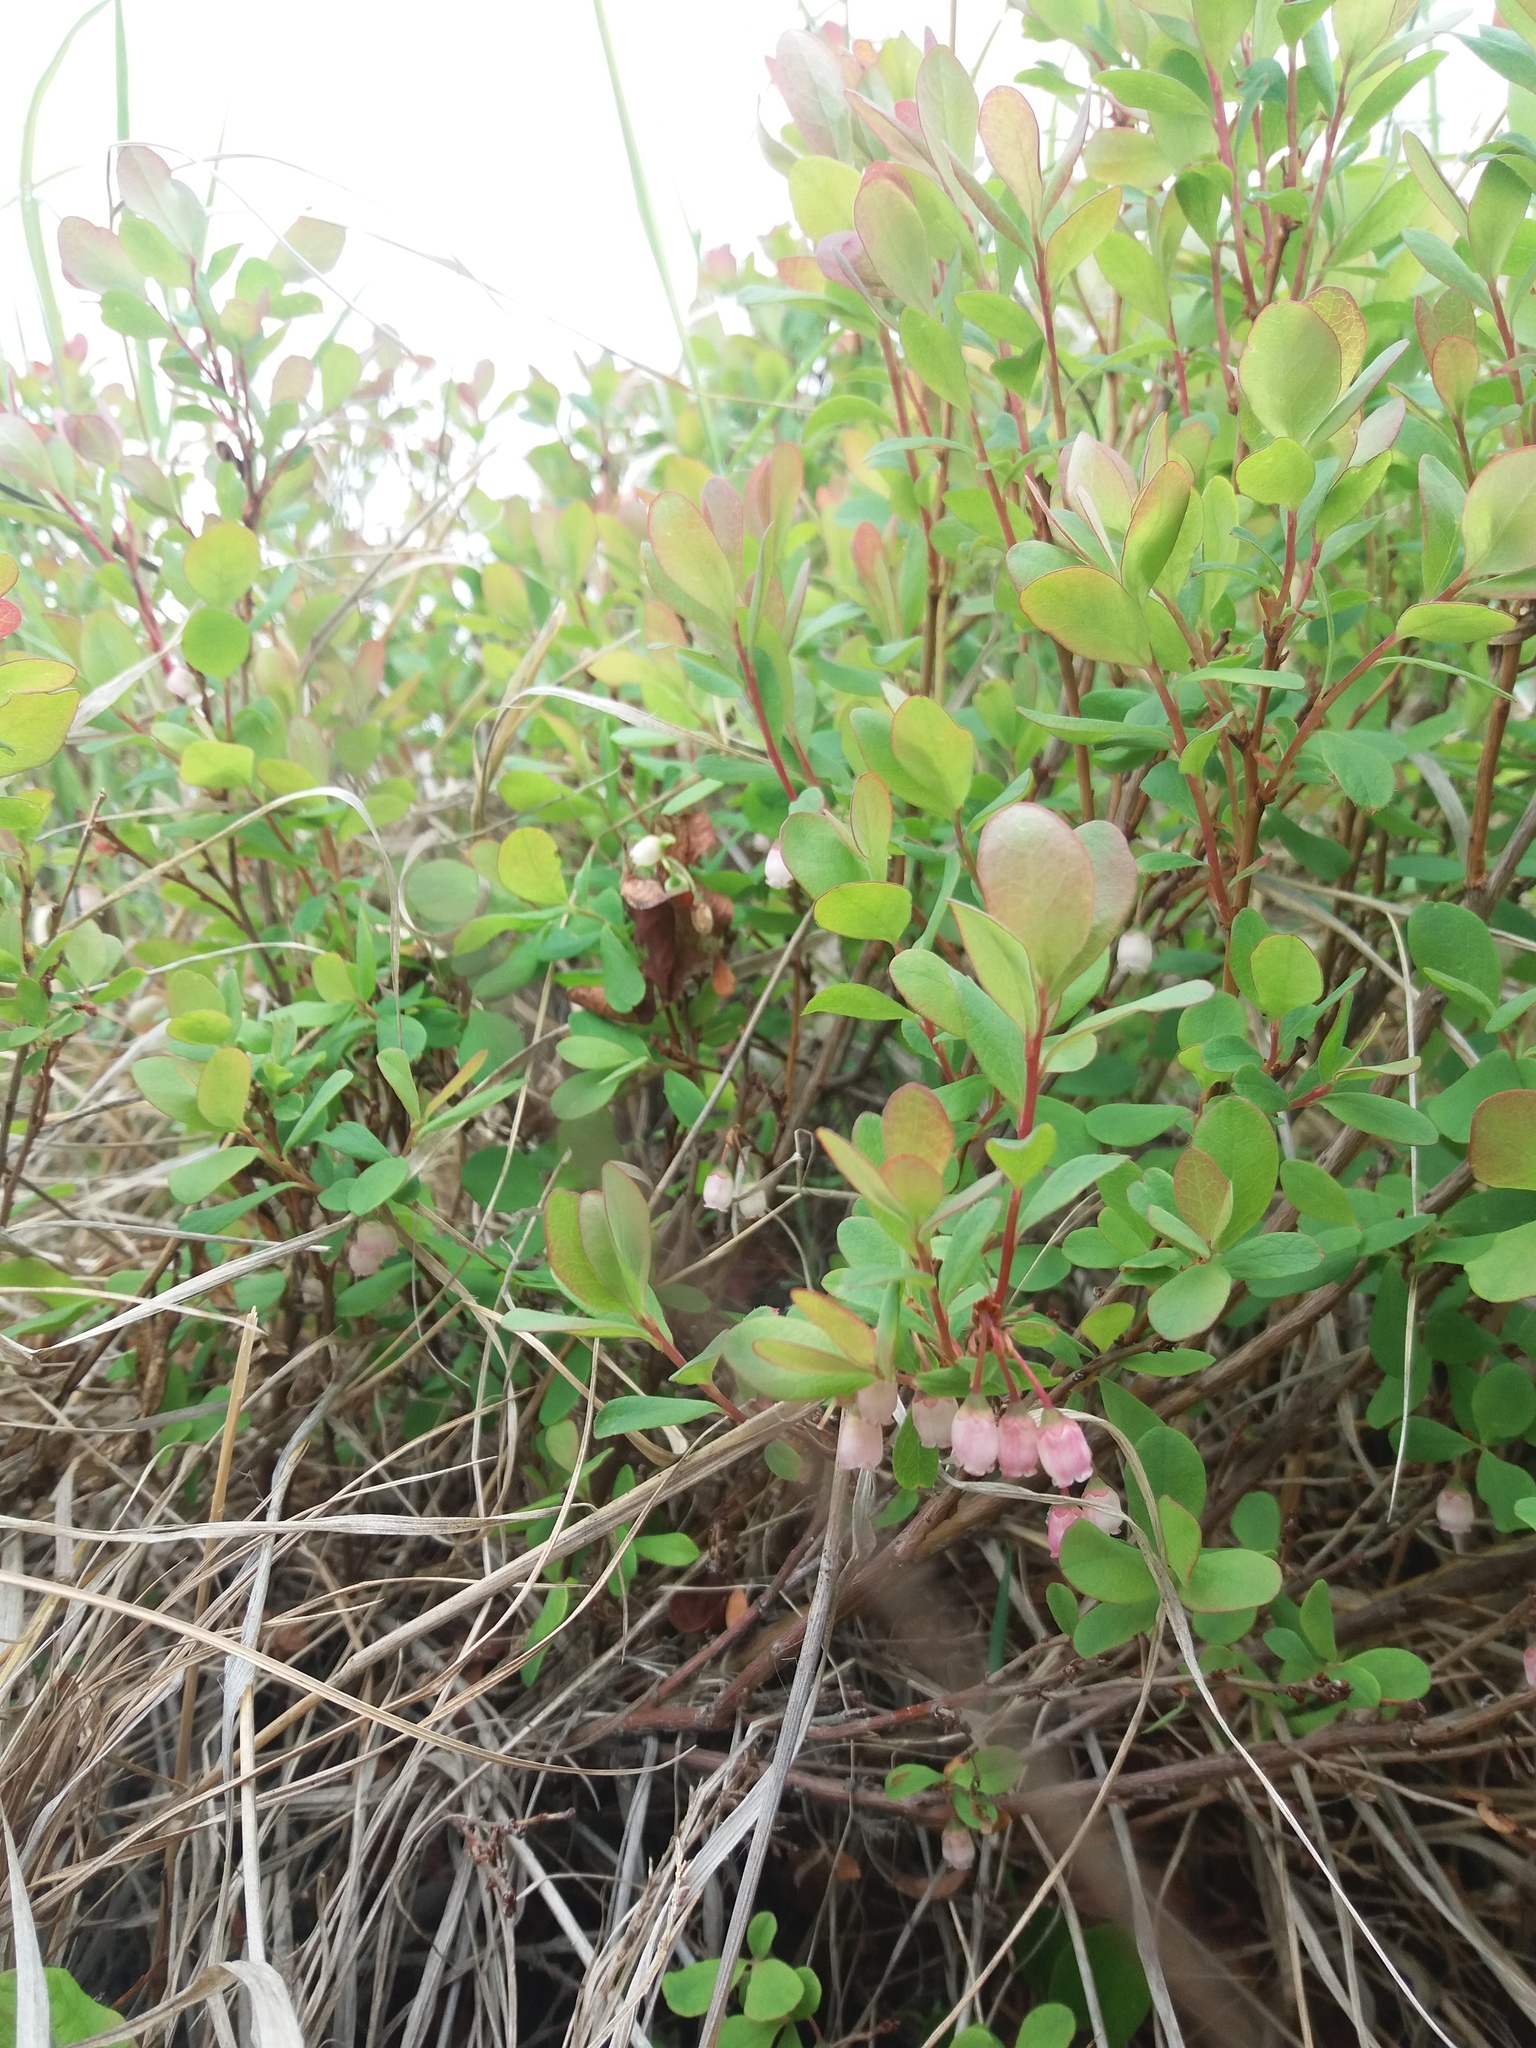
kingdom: Plantae
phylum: Tracheophyta
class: Magnoliopsida
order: Ericales
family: Ericaceae
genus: Vaccinium
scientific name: Vaccinium uliginosum
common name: Bog bilberry
